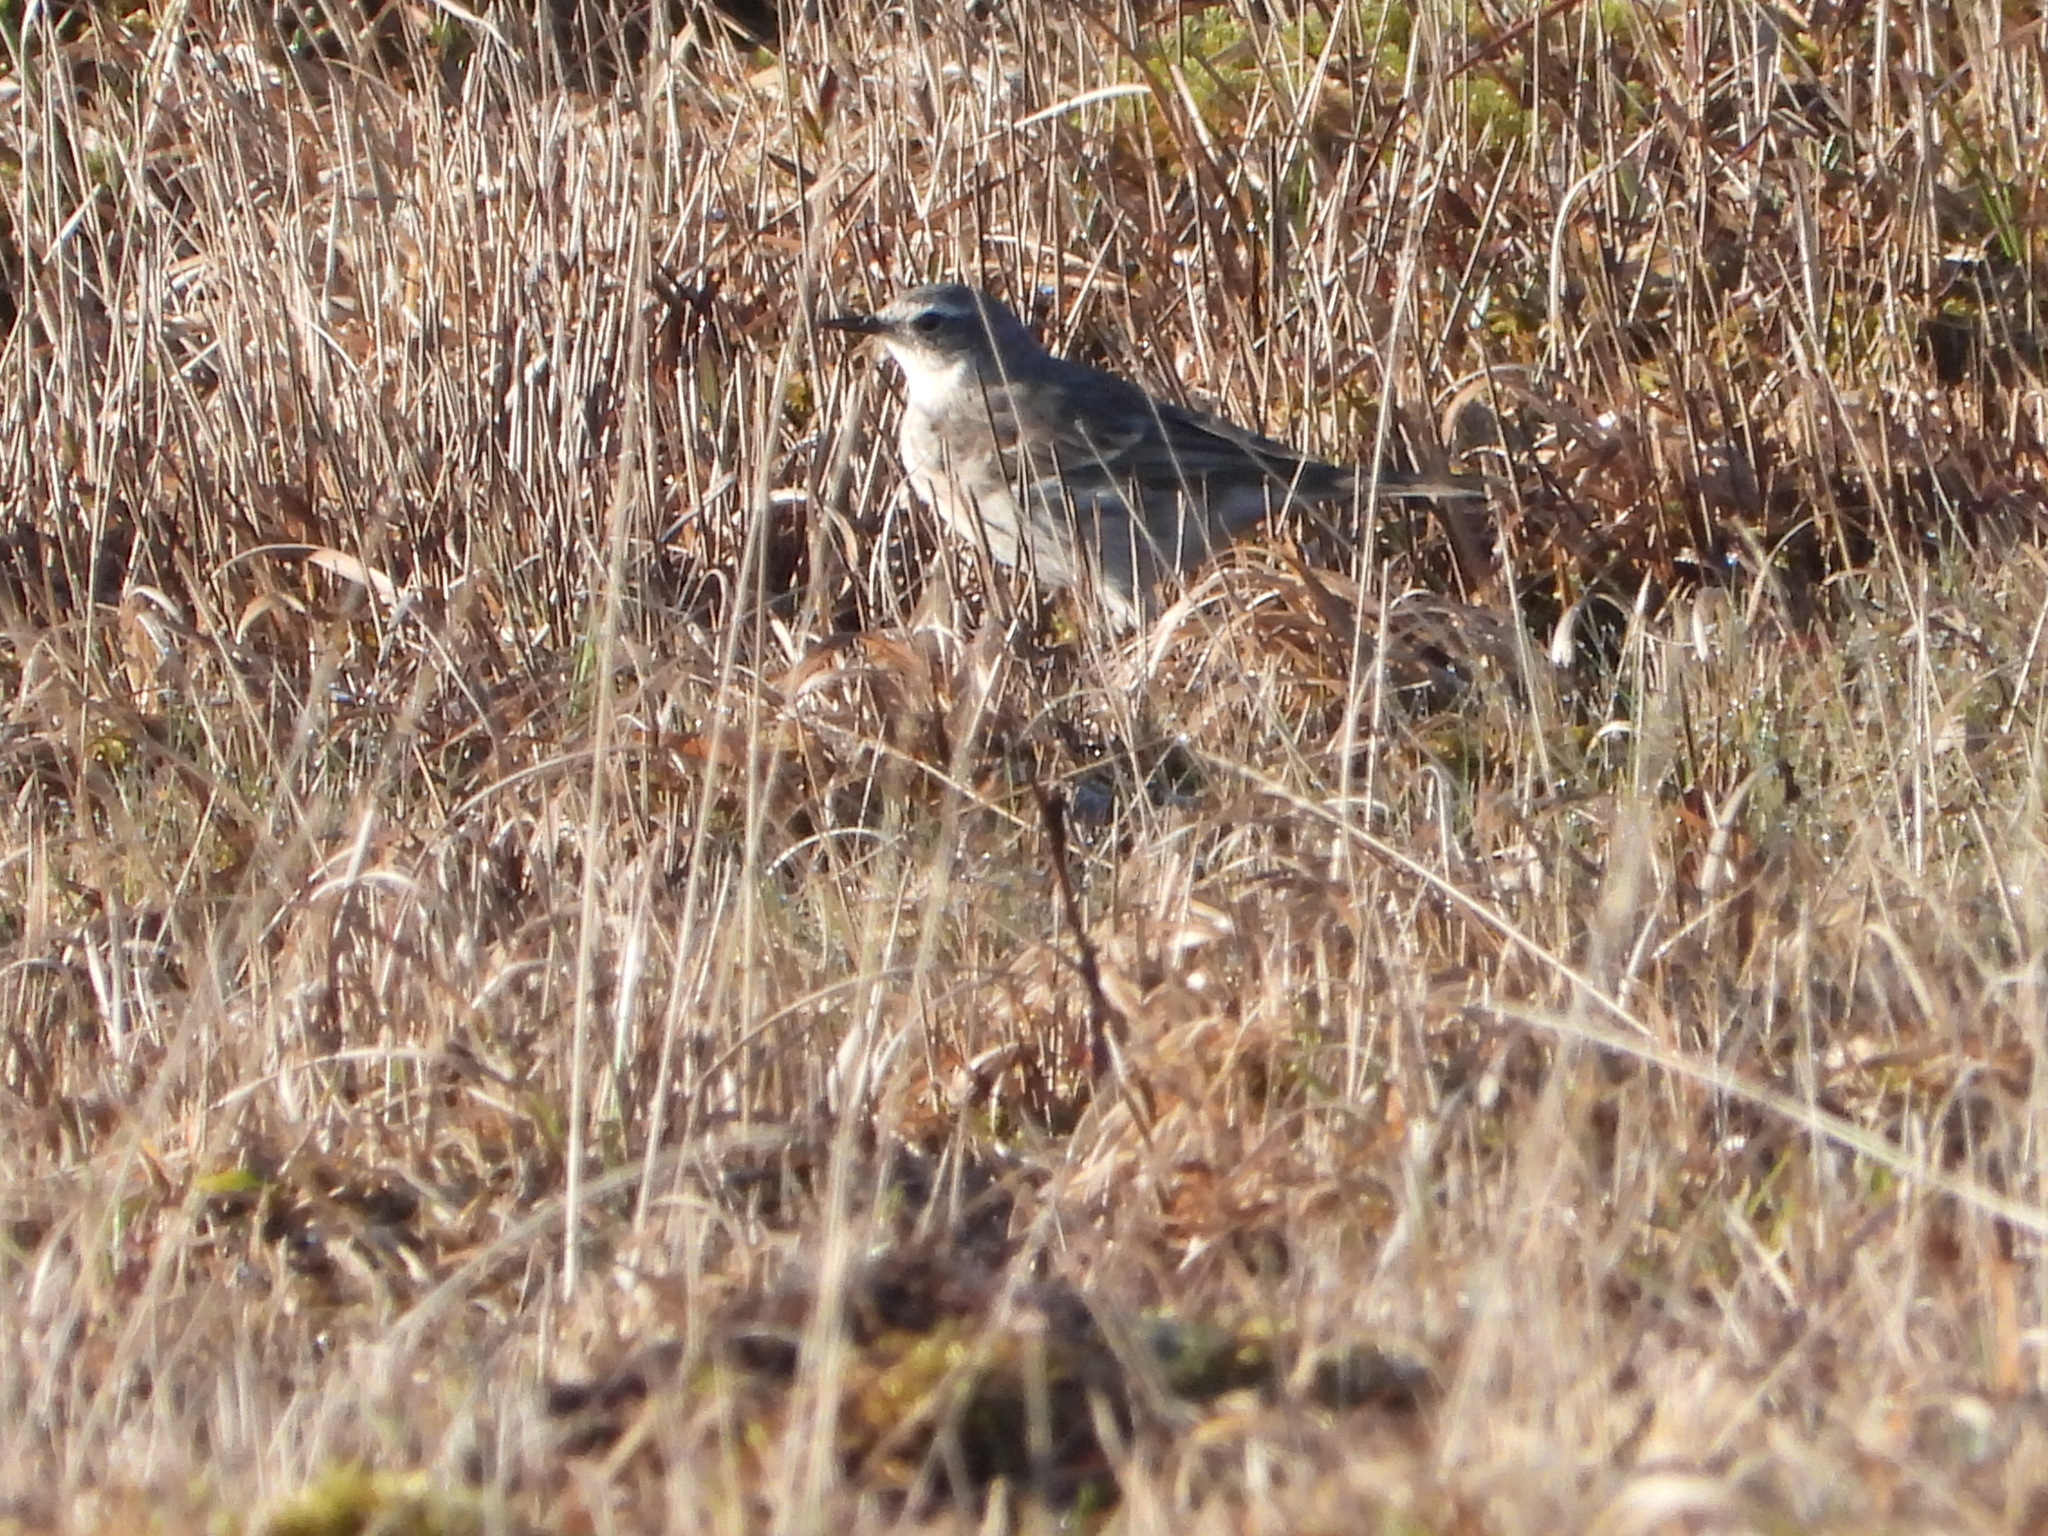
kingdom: Animalia
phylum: Chordata
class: Aves
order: Passeriformes
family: Motacillidae
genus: Anthus
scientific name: Anthus spinoletta
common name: Water pipit
